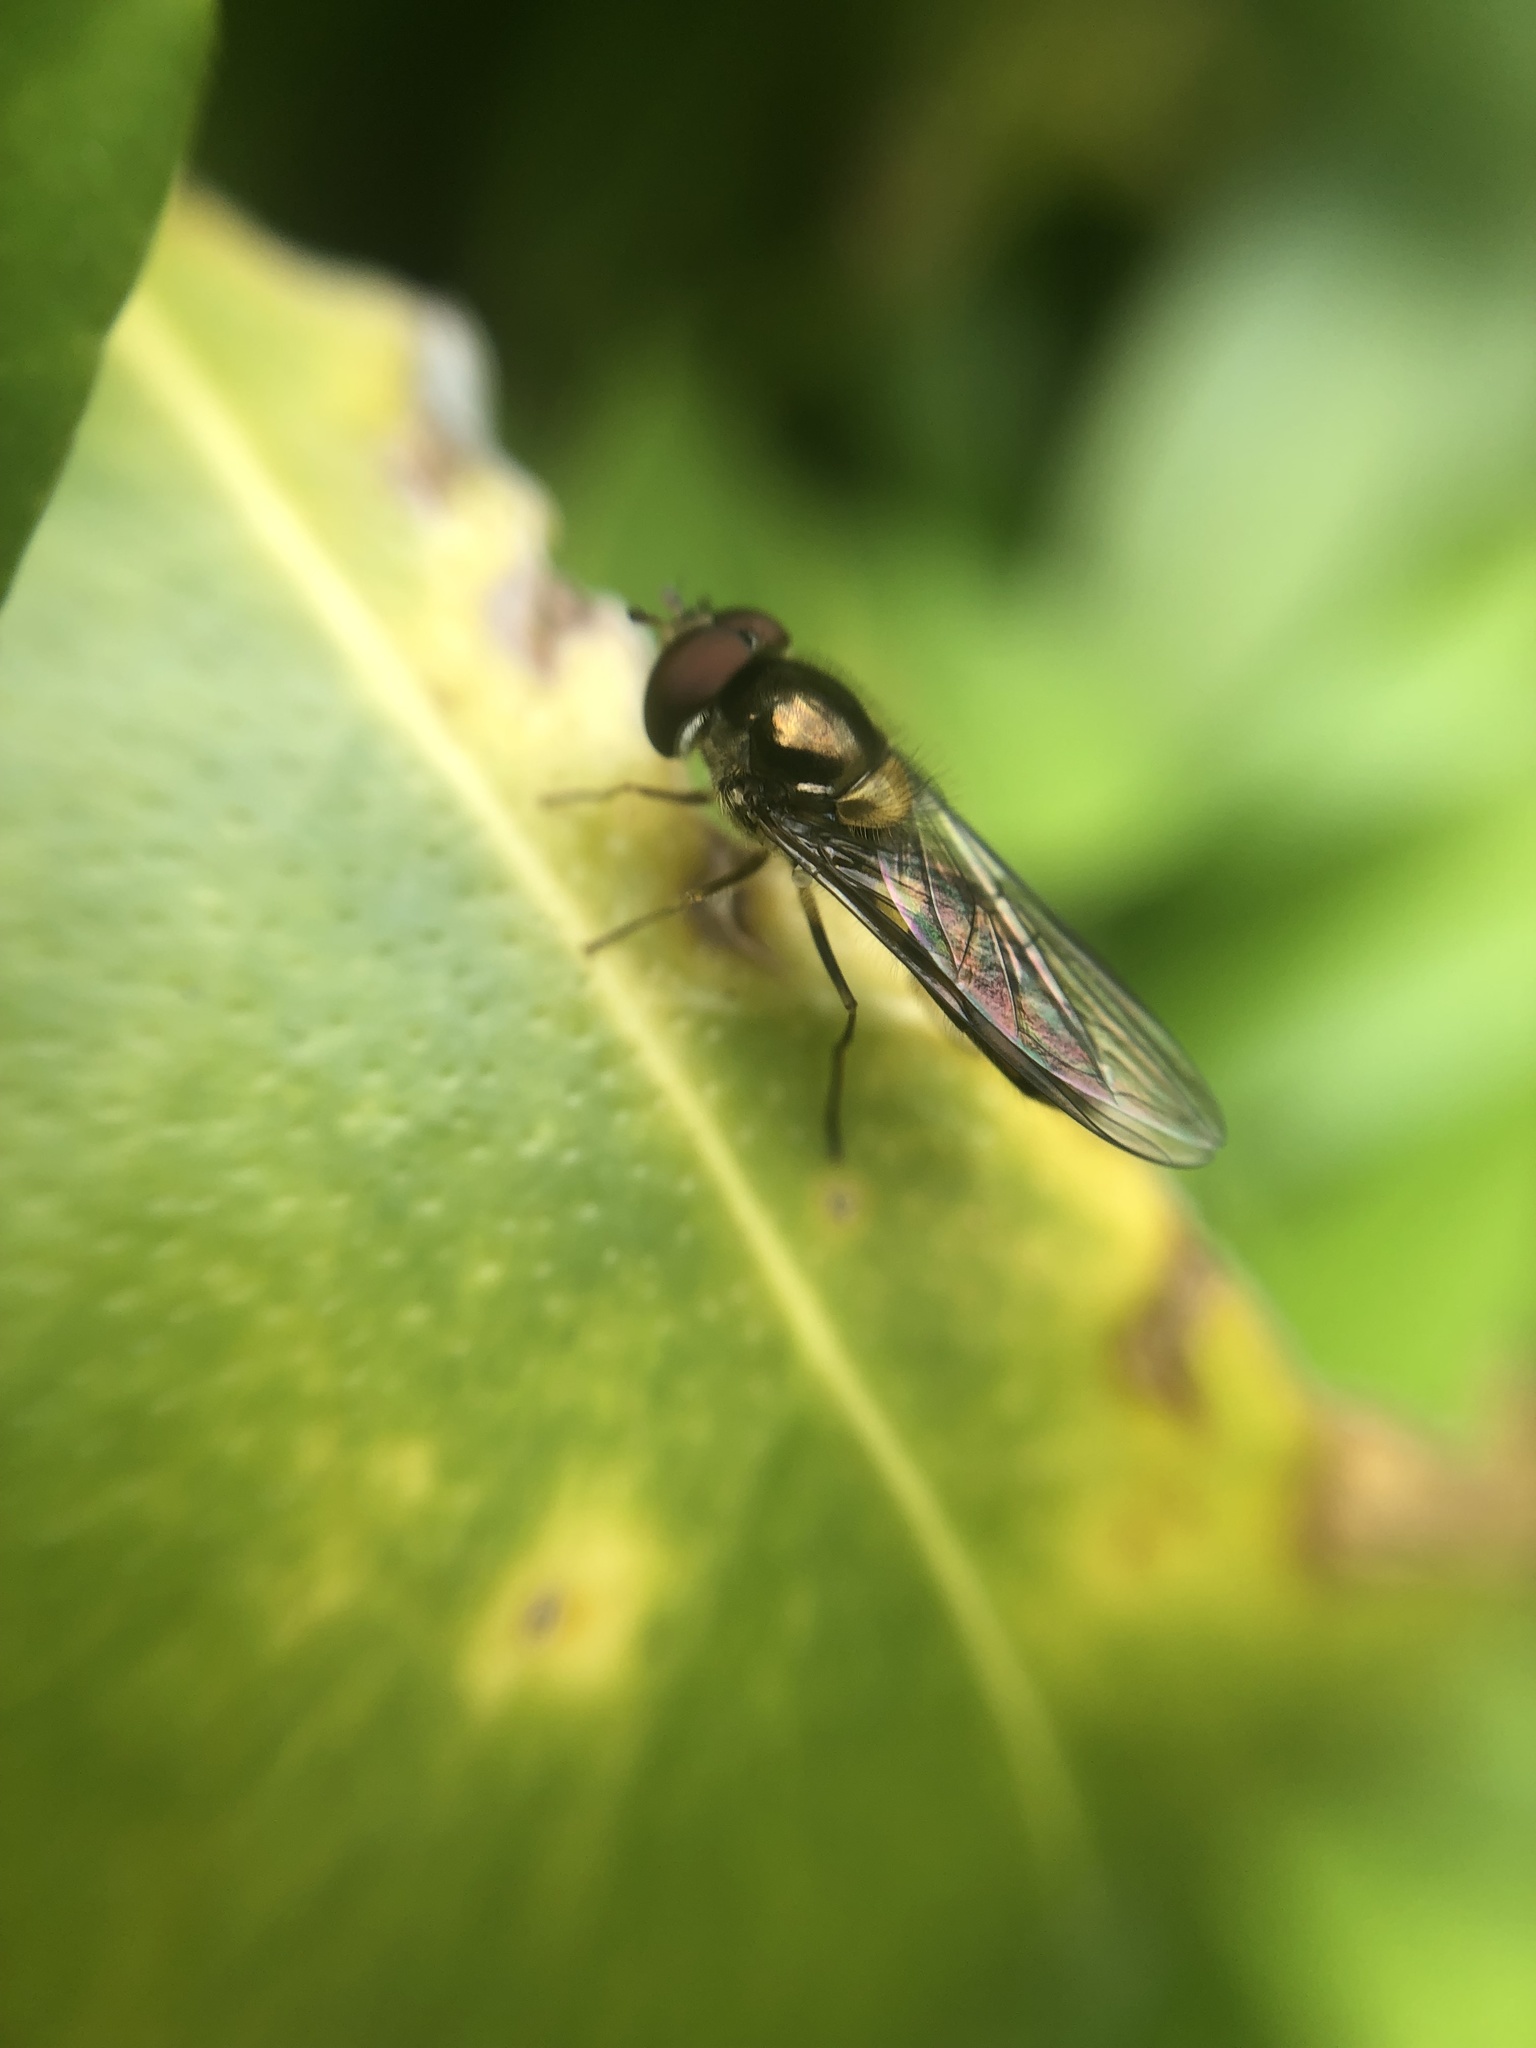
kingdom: Animalia
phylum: Arthropoda
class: Insecta
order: Diptera
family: Syrphidae
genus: Meliscaeva
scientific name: Meliscaeva auricollis
